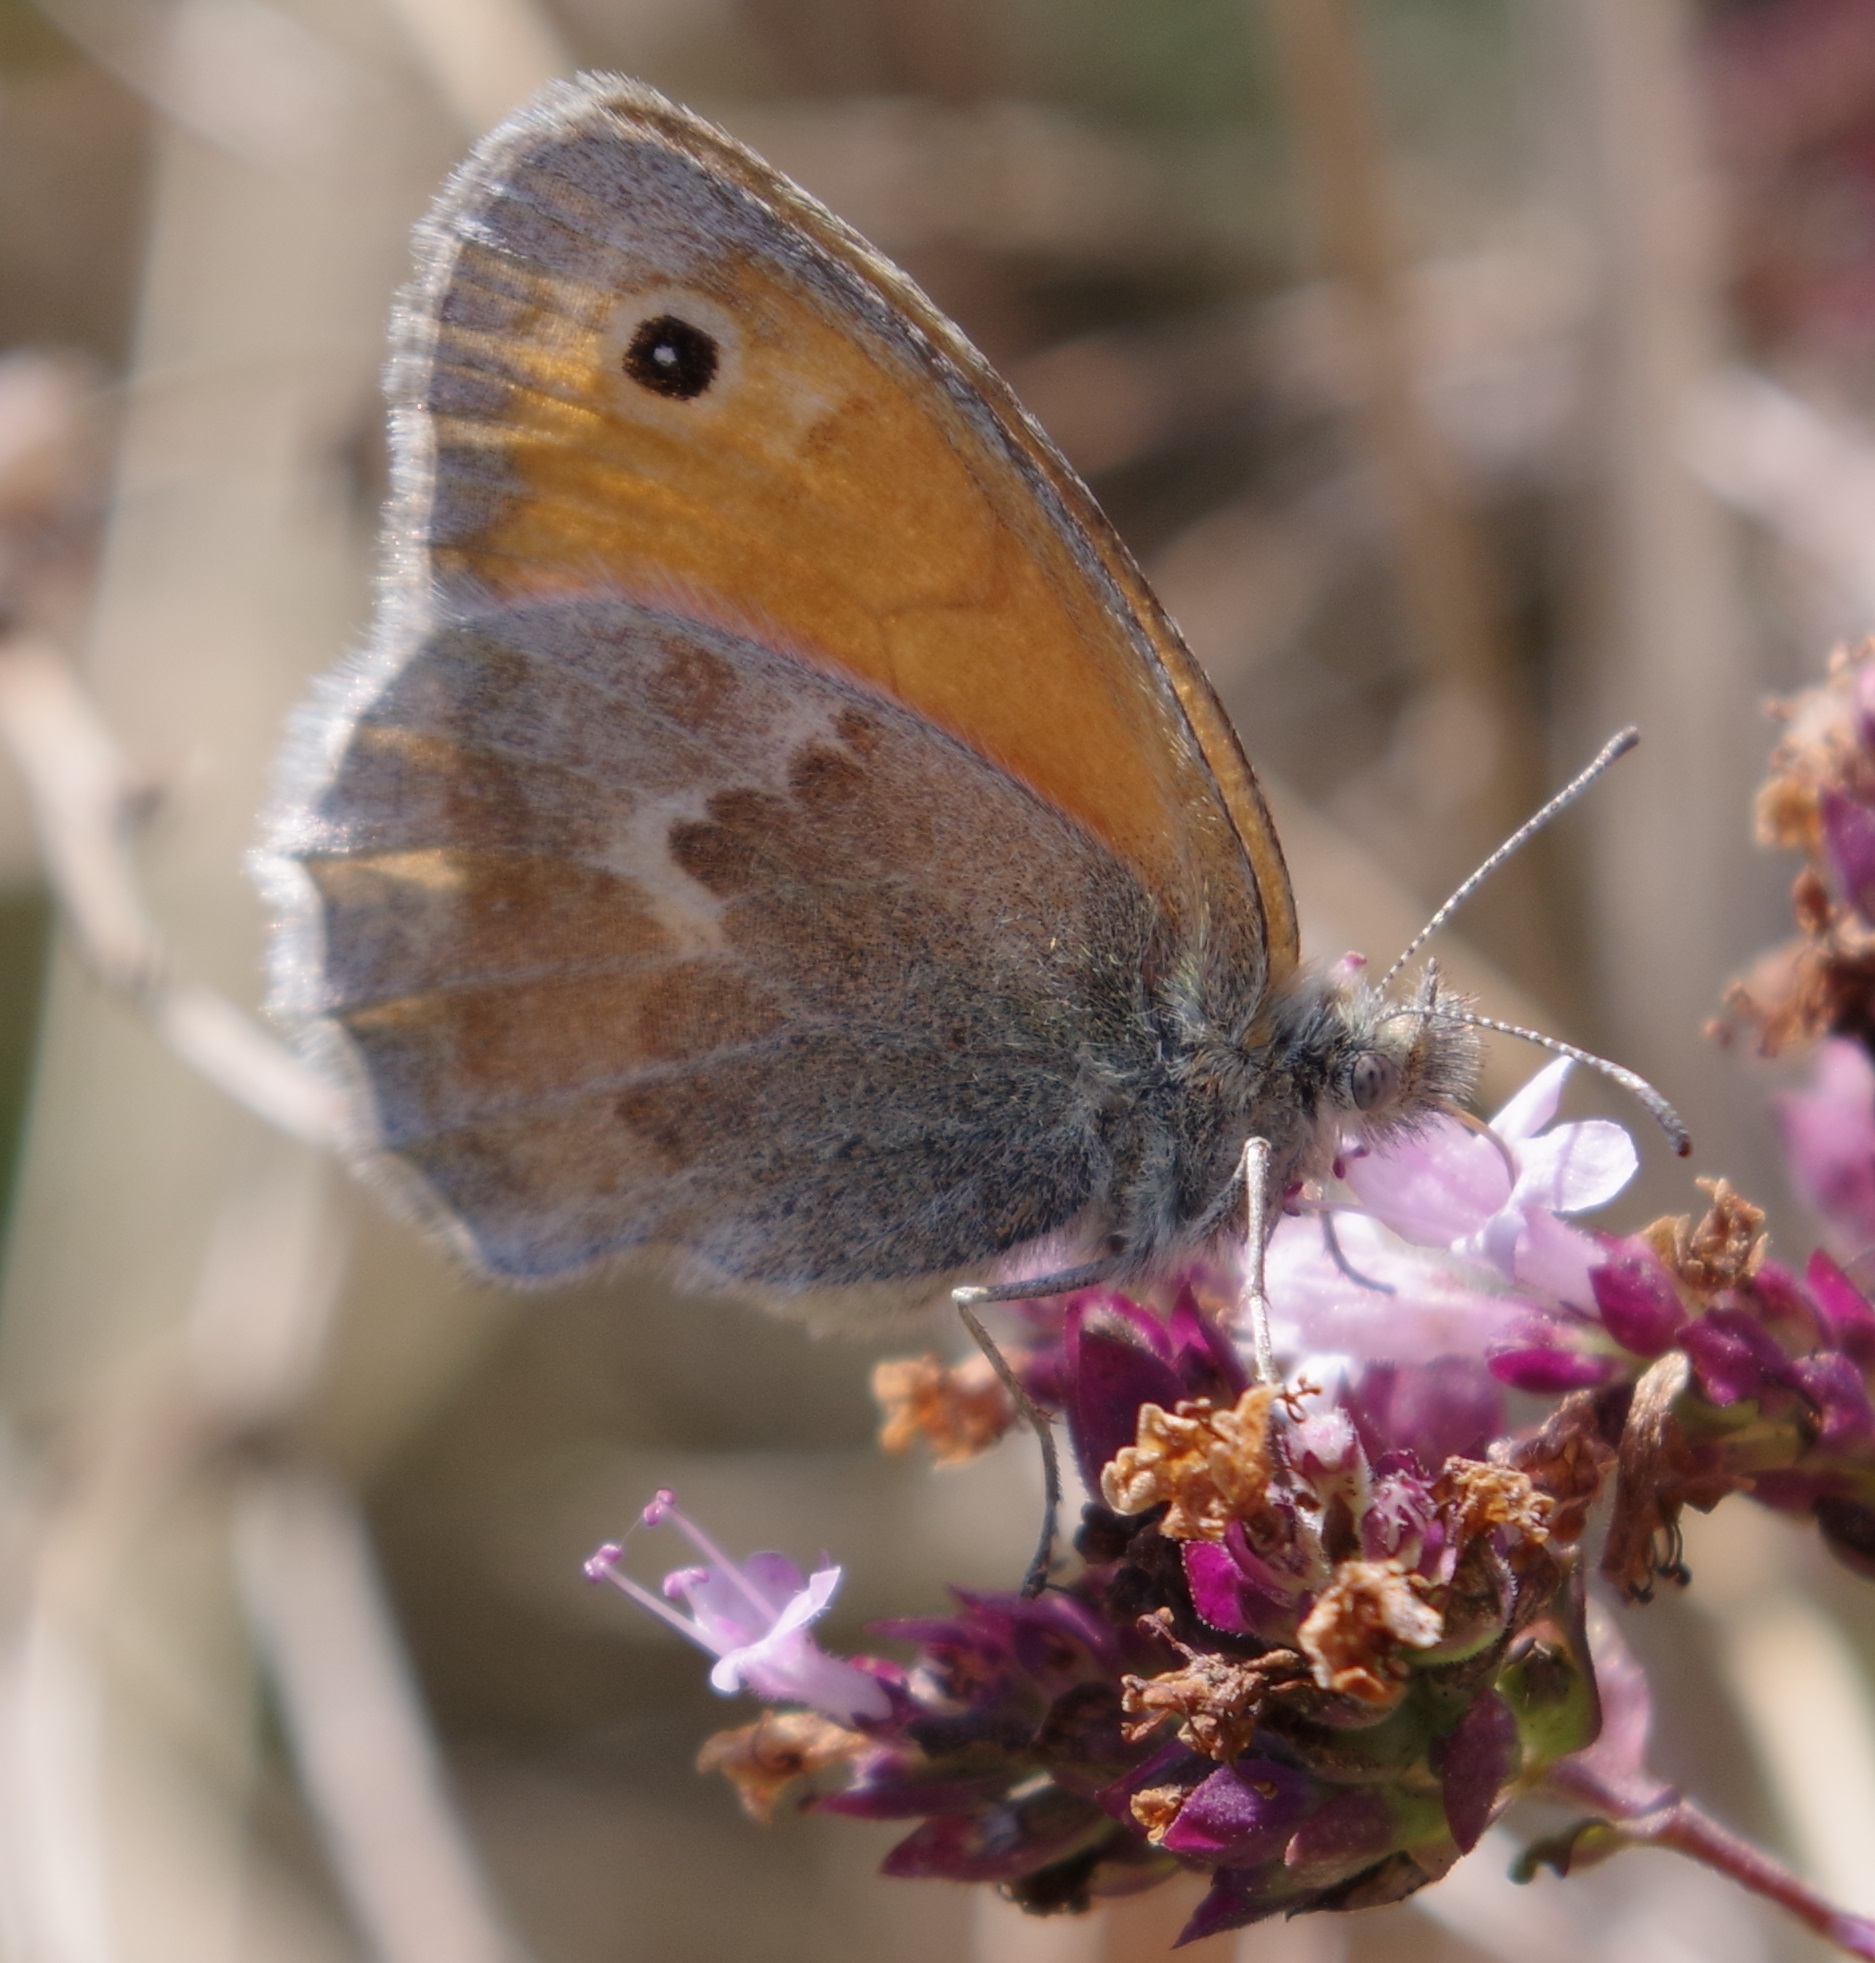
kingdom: Animalia
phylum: Arthropoda
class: Insecta
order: Lepidoptera
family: Nymphalidae
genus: Coenonympha
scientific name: Coenonympha pamphilus
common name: Small heath
